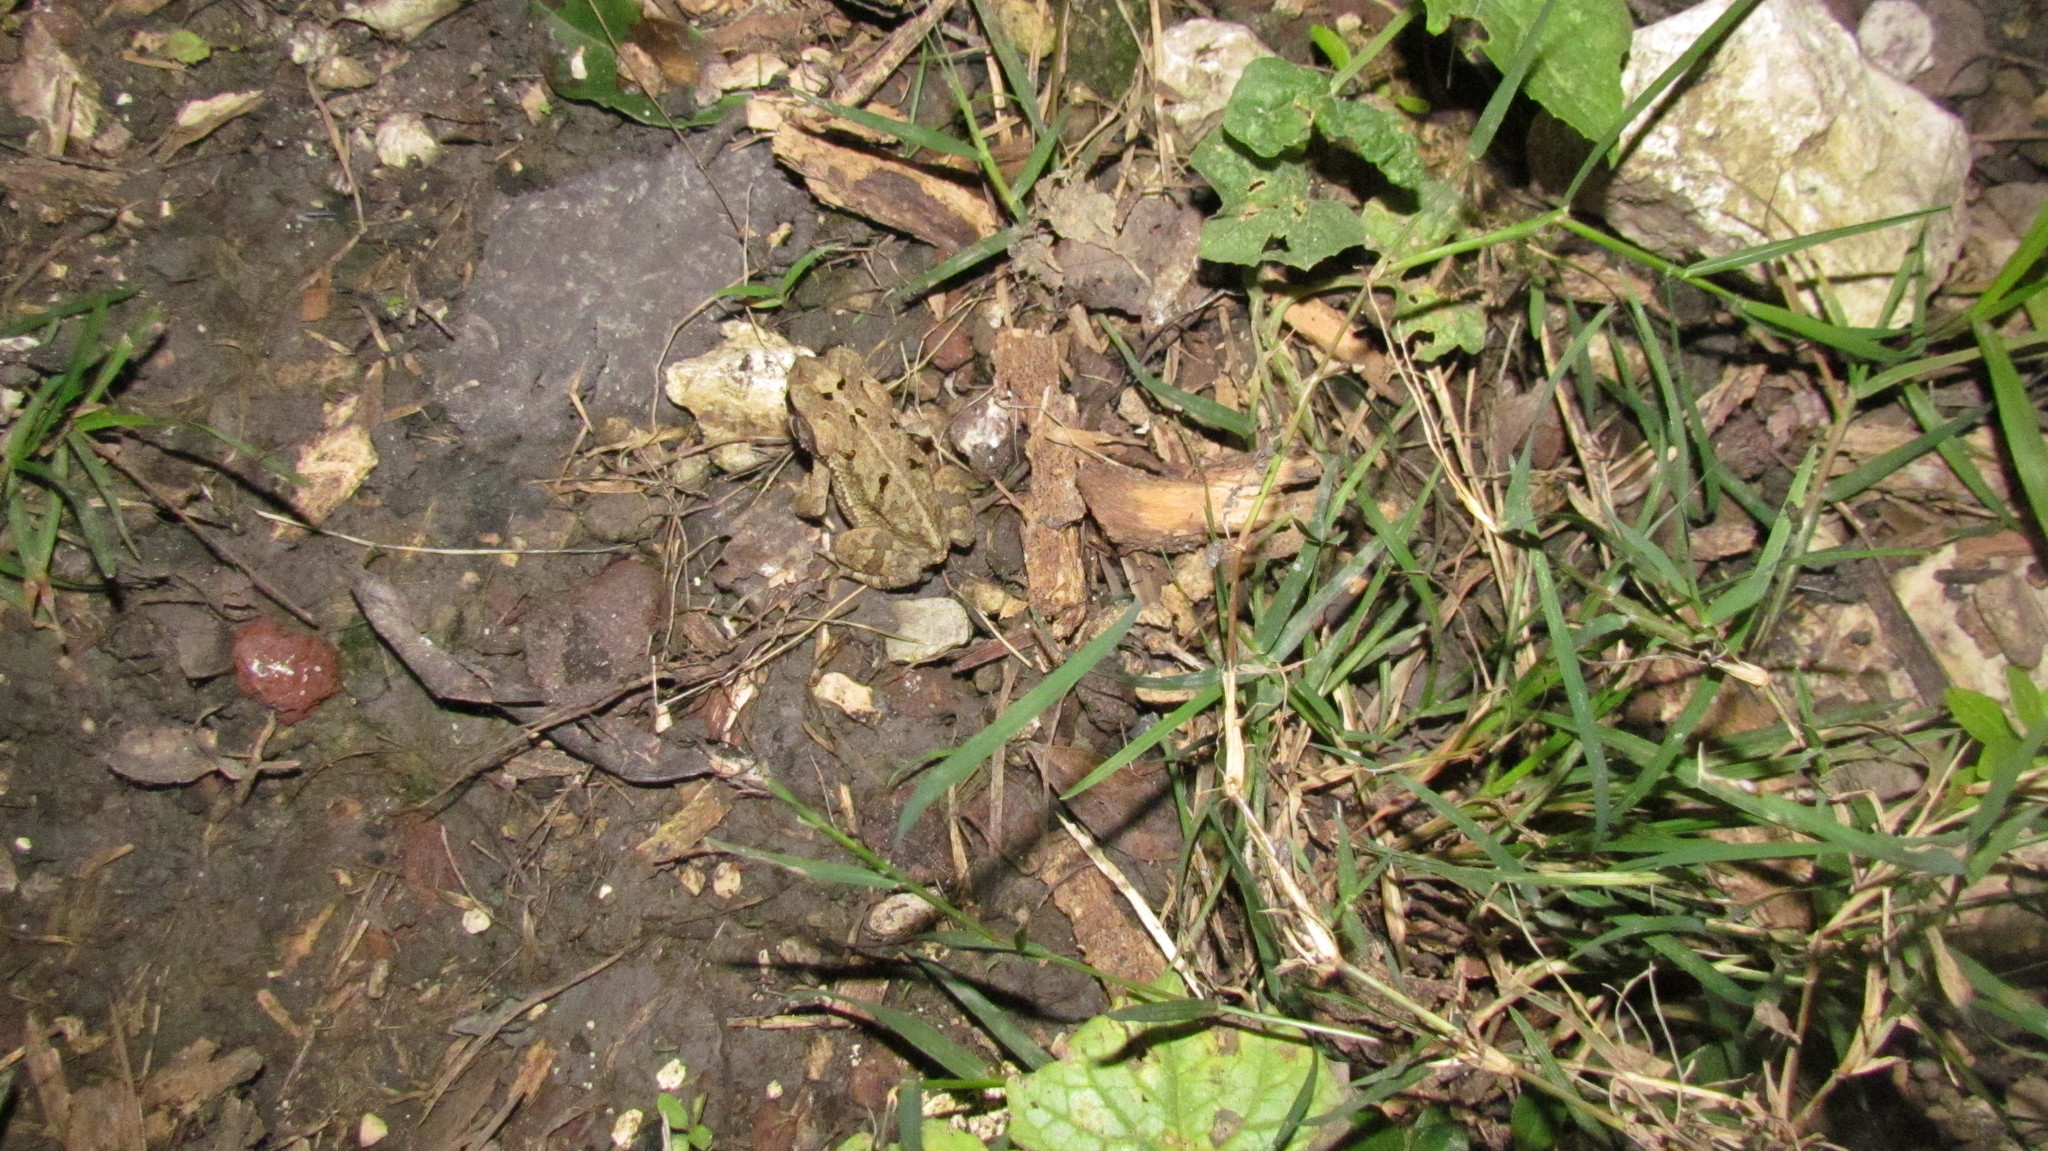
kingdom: Animalia
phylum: Chordata
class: Amphibia
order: Anura
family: Bufonidae
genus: Incilius
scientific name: Incilius valliceps
